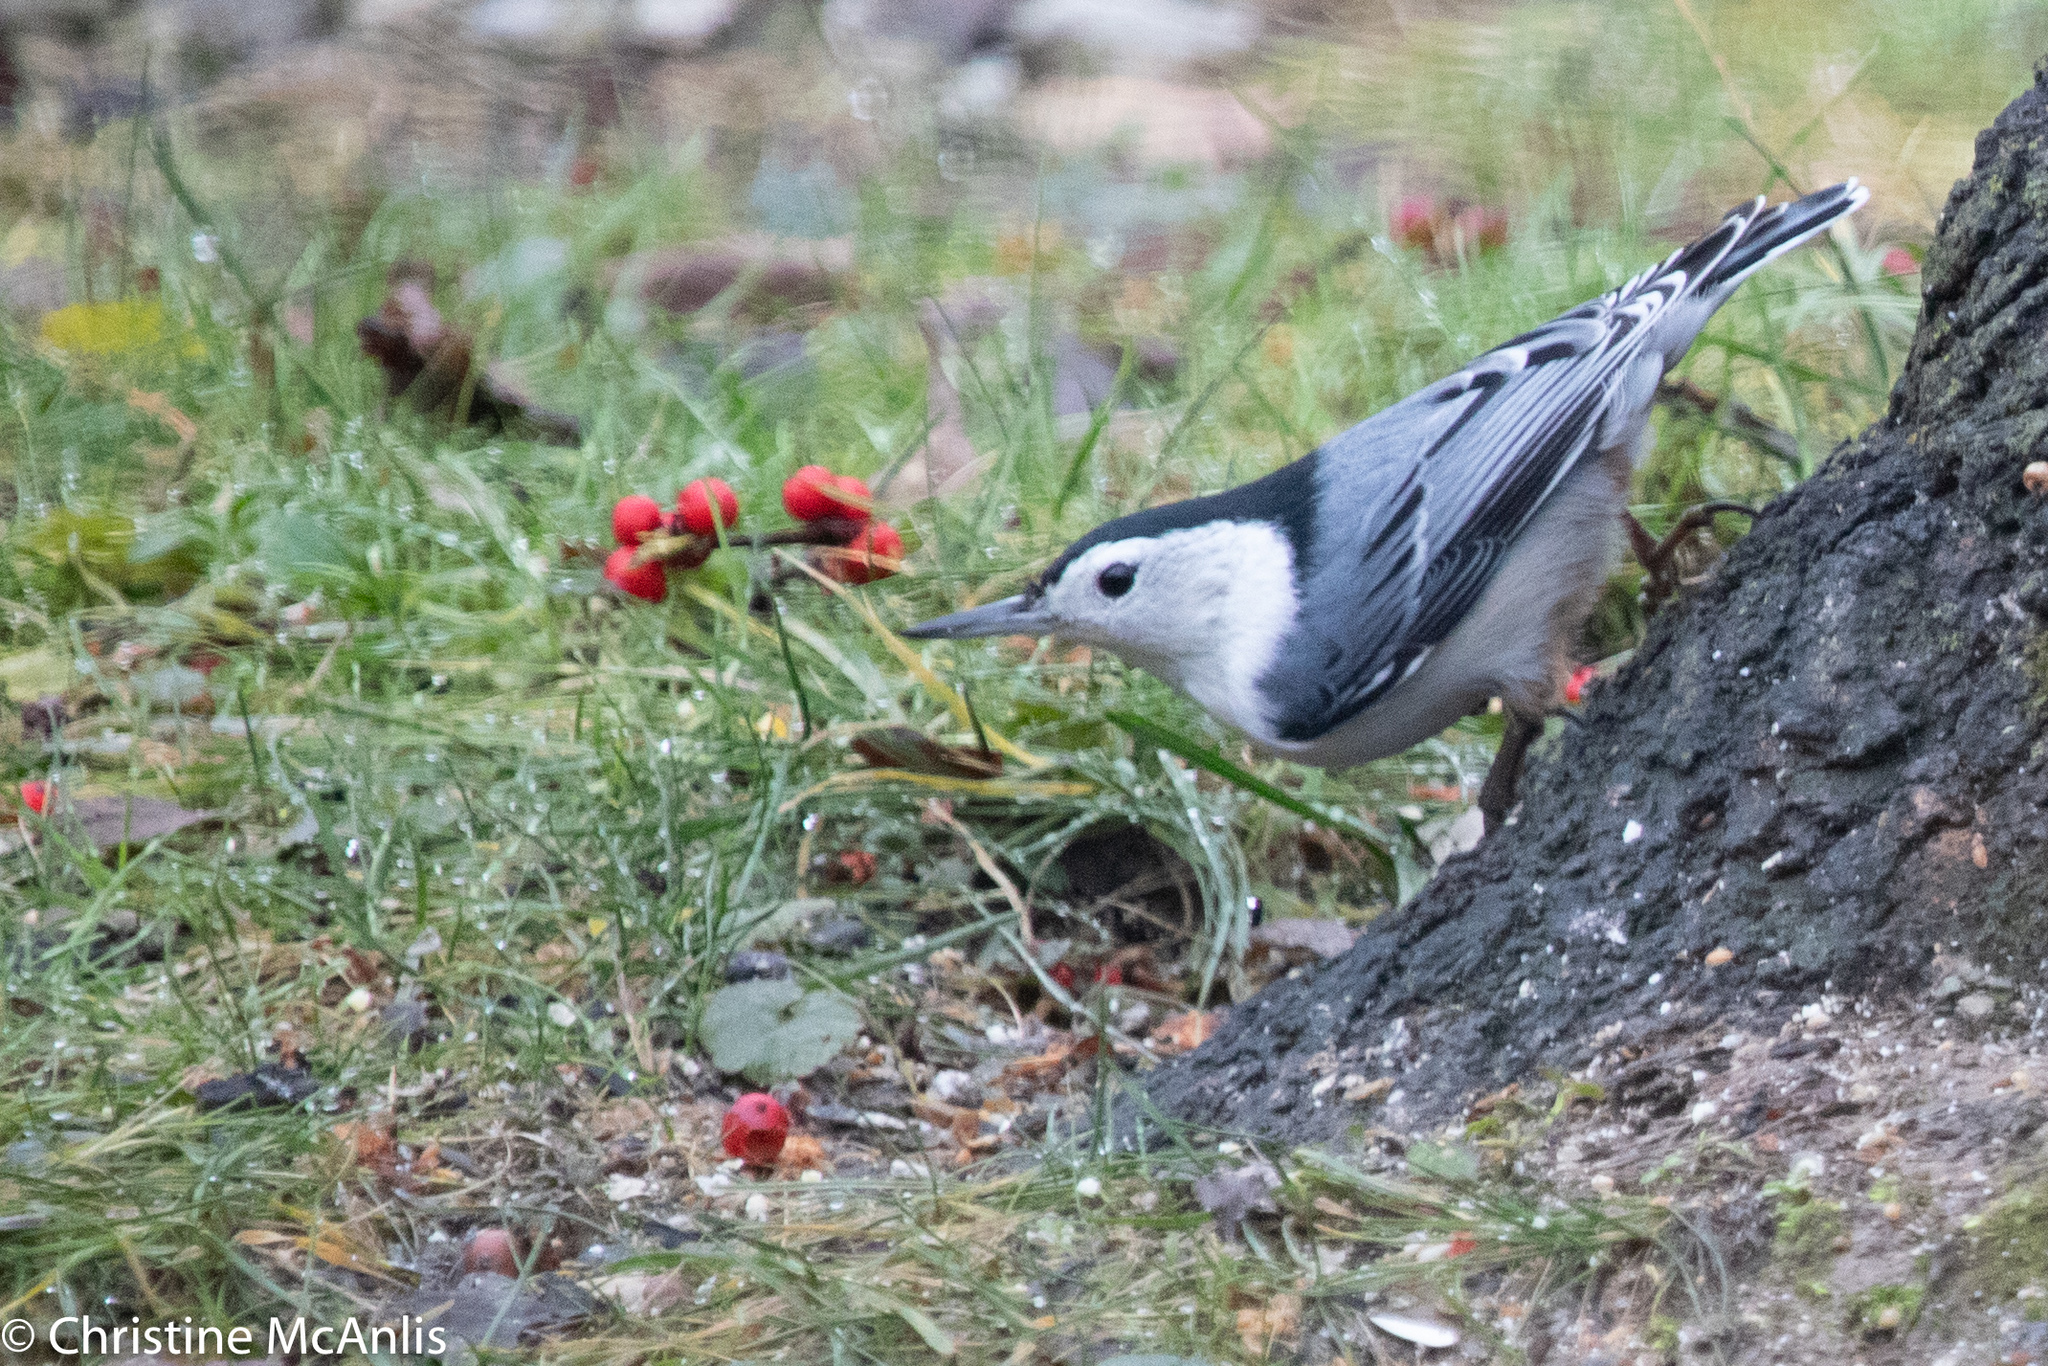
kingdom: Animalia
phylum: Chordata
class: Aves
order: Passeriformes
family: Sittidae
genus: Sitta
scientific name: Sitta carolinensis
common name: White-breasted nuthatch
